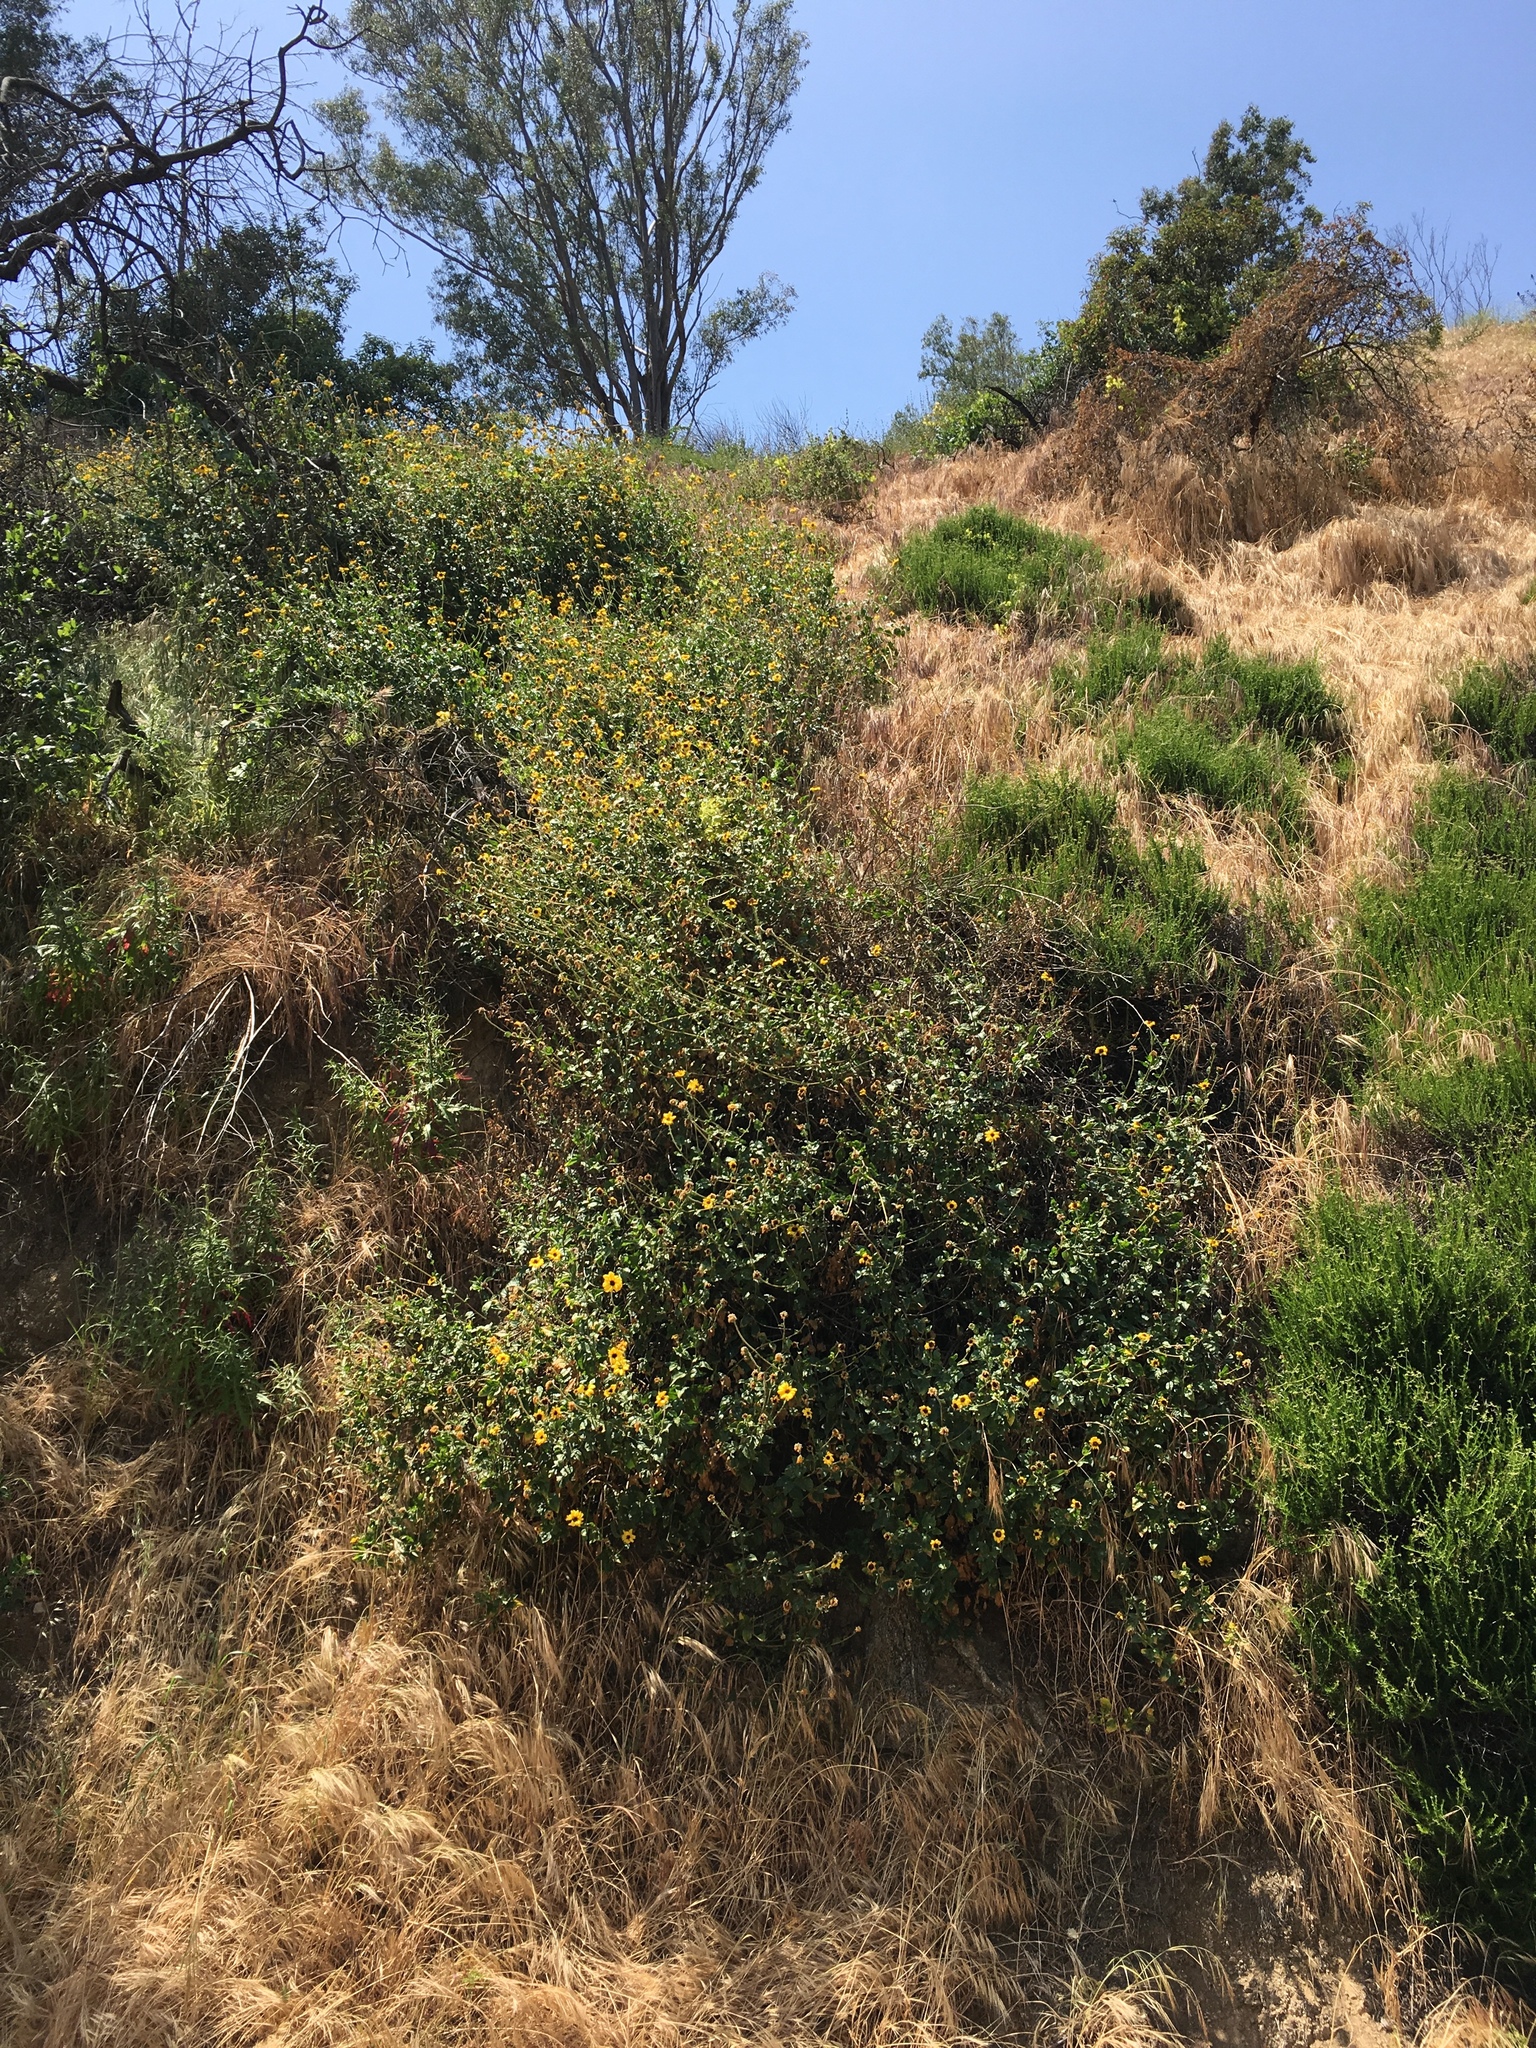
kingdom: Plantae
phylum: Tracheophyta
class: Magnoliopsida
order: Asterales
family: Asteraceae
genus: Encelia
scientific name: Encelia californica
